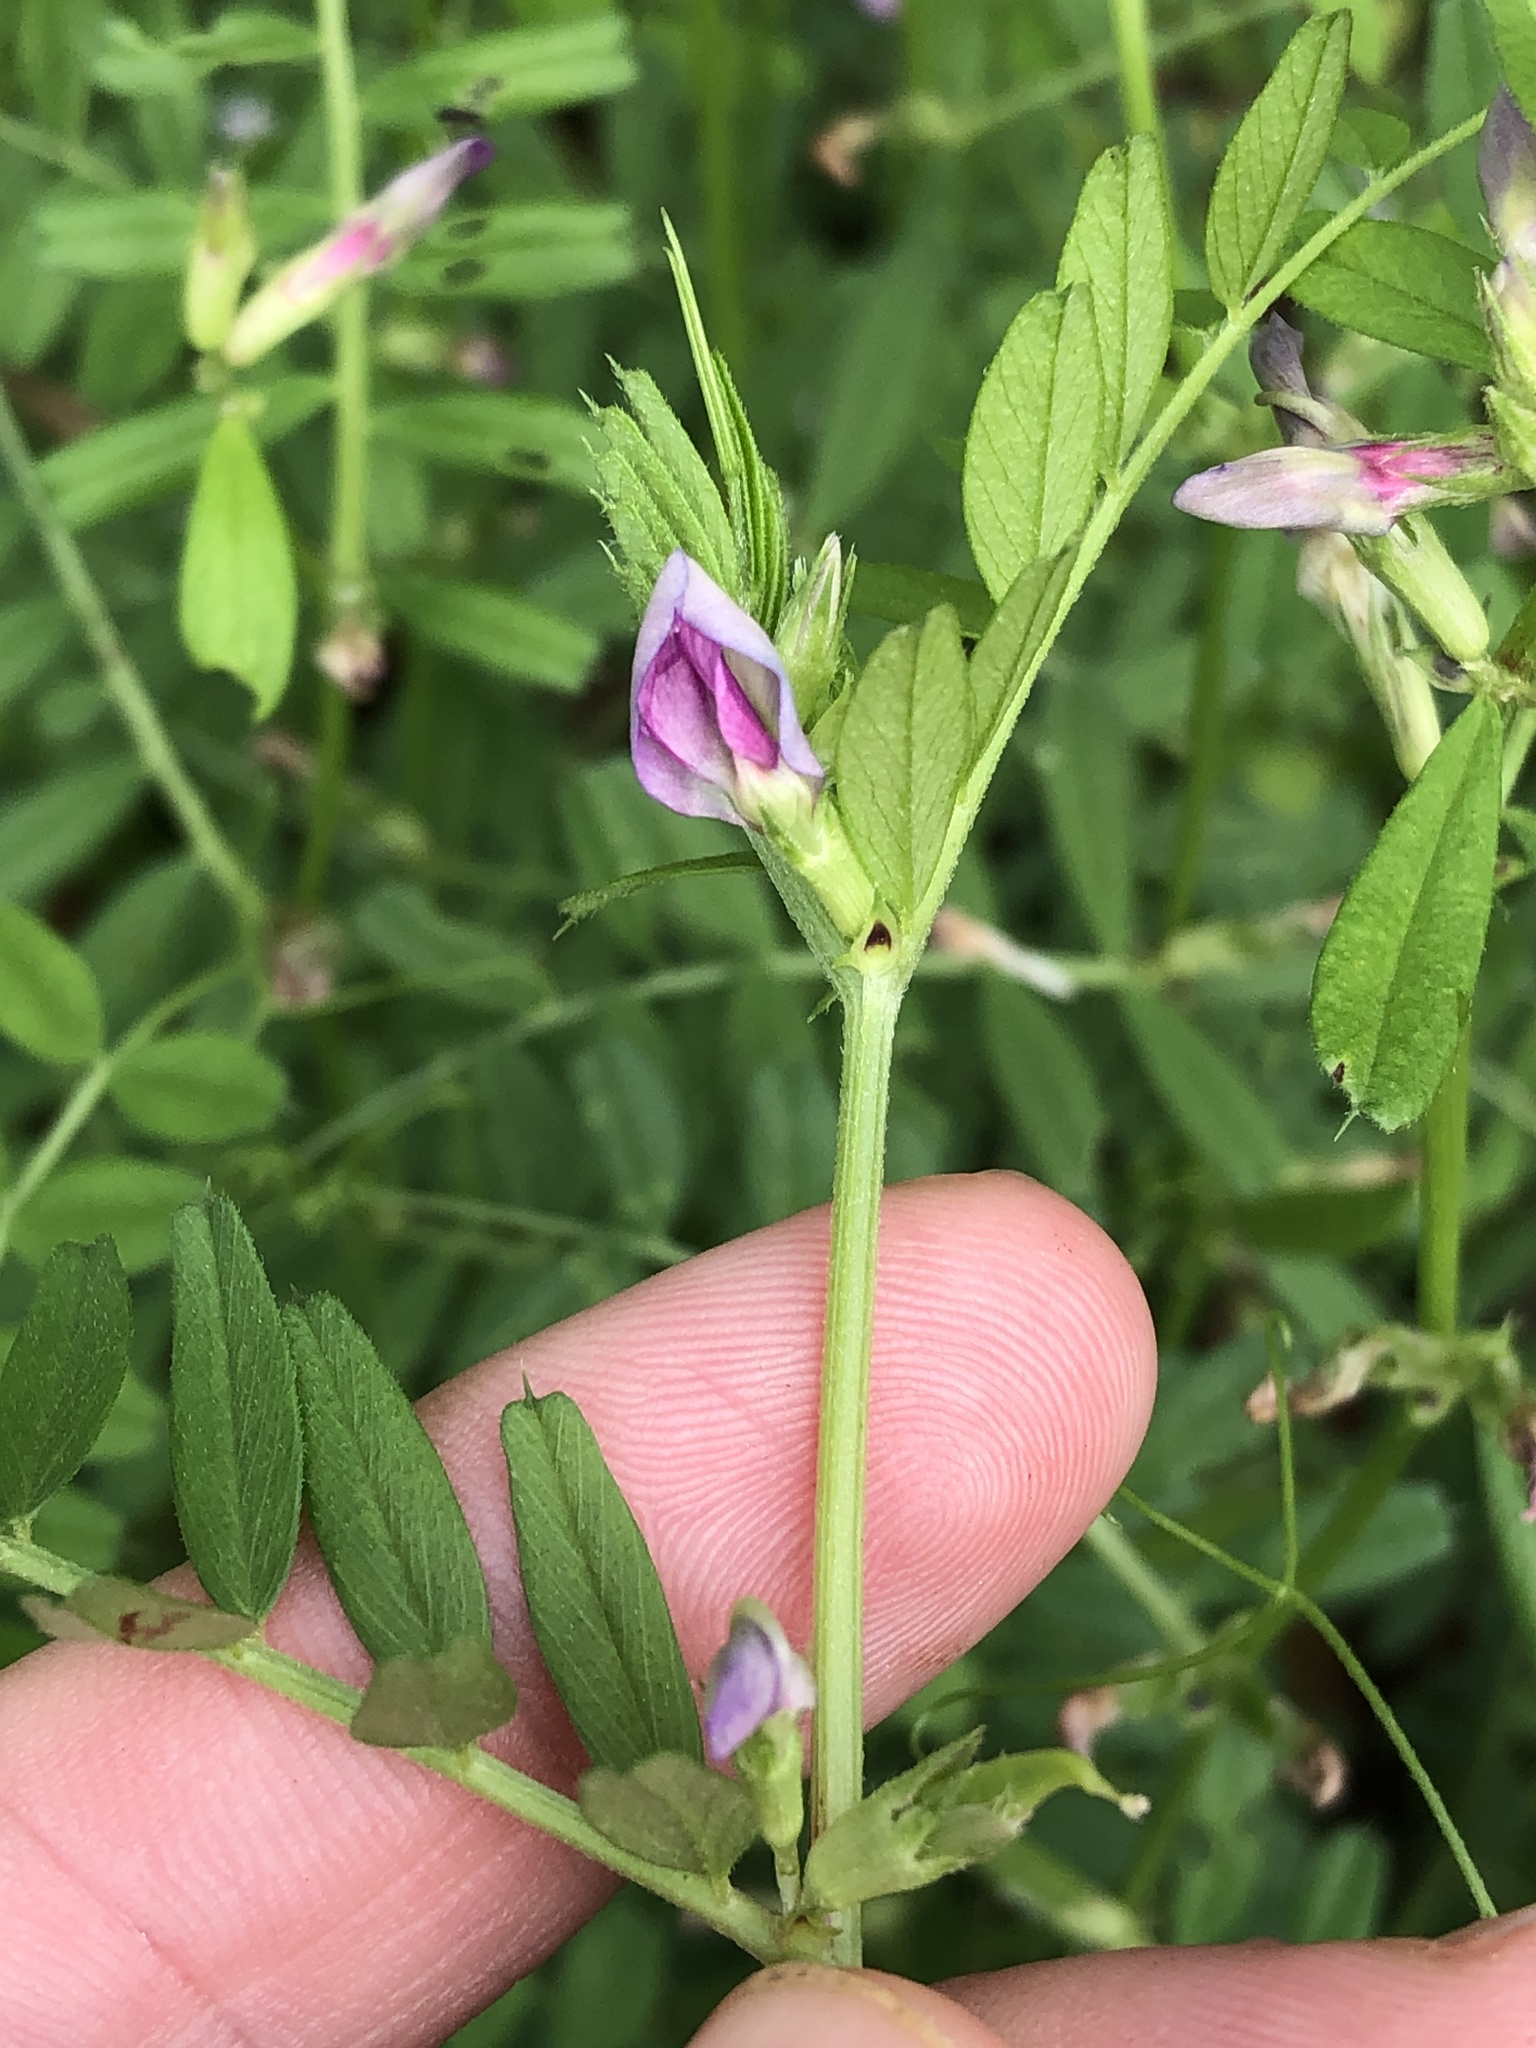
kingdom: Plantae
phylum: Tracheophyta
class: Magnoliopsida
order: Fabales
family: Fabaceae
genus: Vicia
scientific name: Vicia sativa
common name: Garden vetch
